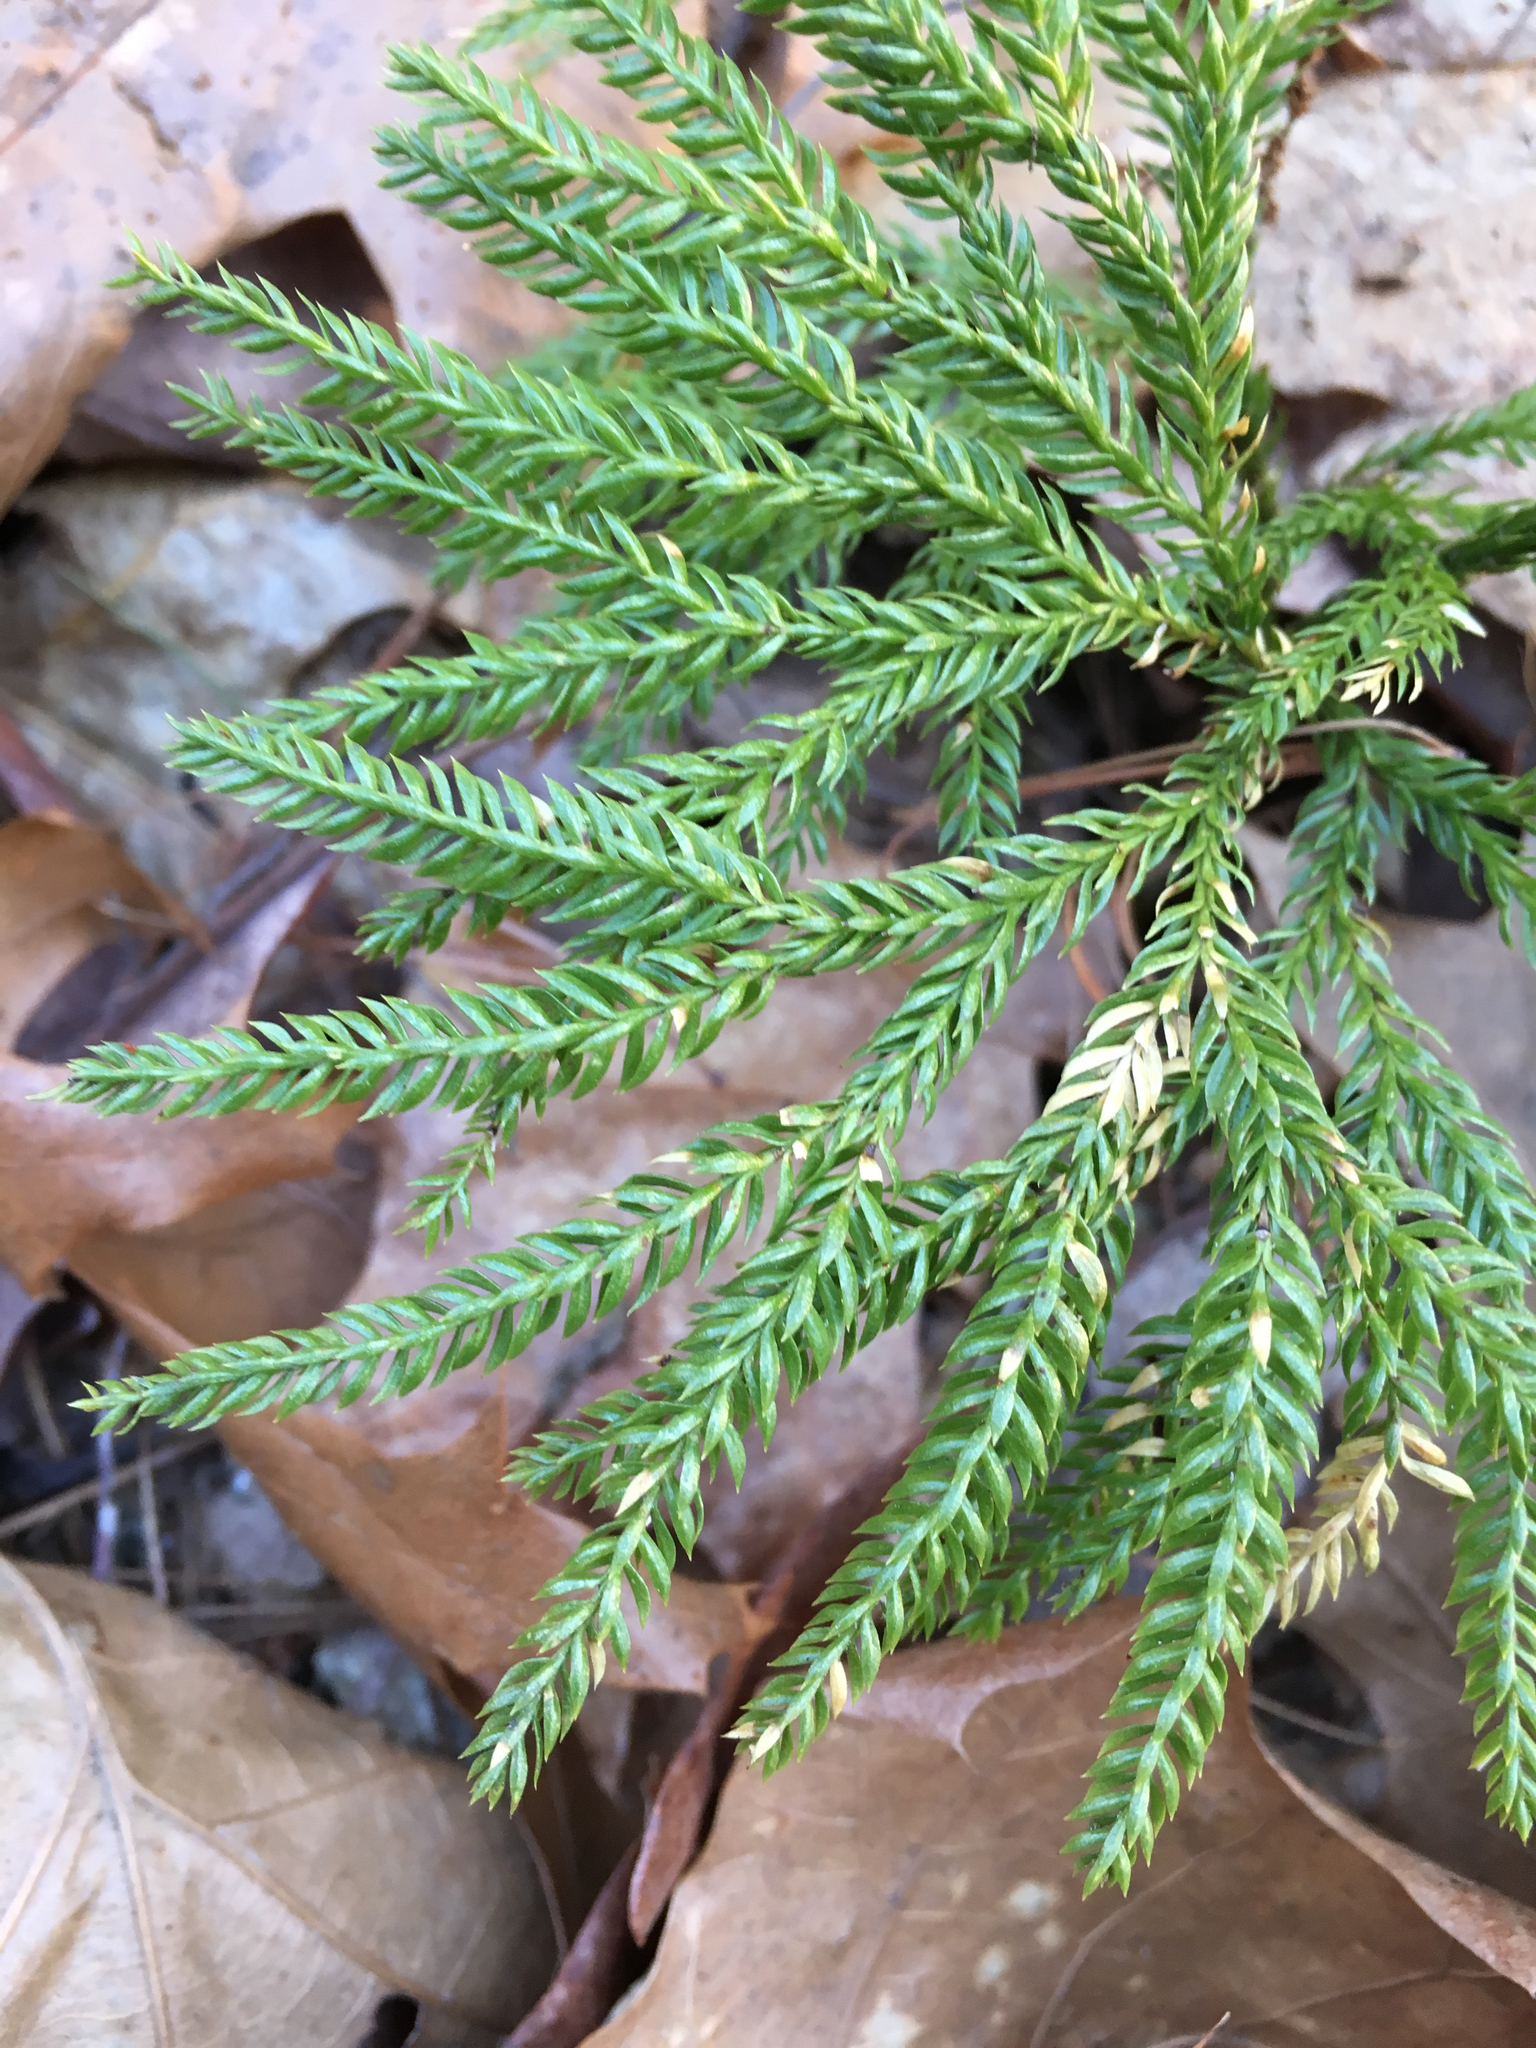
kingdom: Plantae
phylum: Tracheophyta
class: Lycopodiopsida
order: Lycopodiales
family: Lycopodiaceae
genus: Dendrolycopodium
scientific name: Dendrolycopodium obscurum
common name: Common ground-pine
